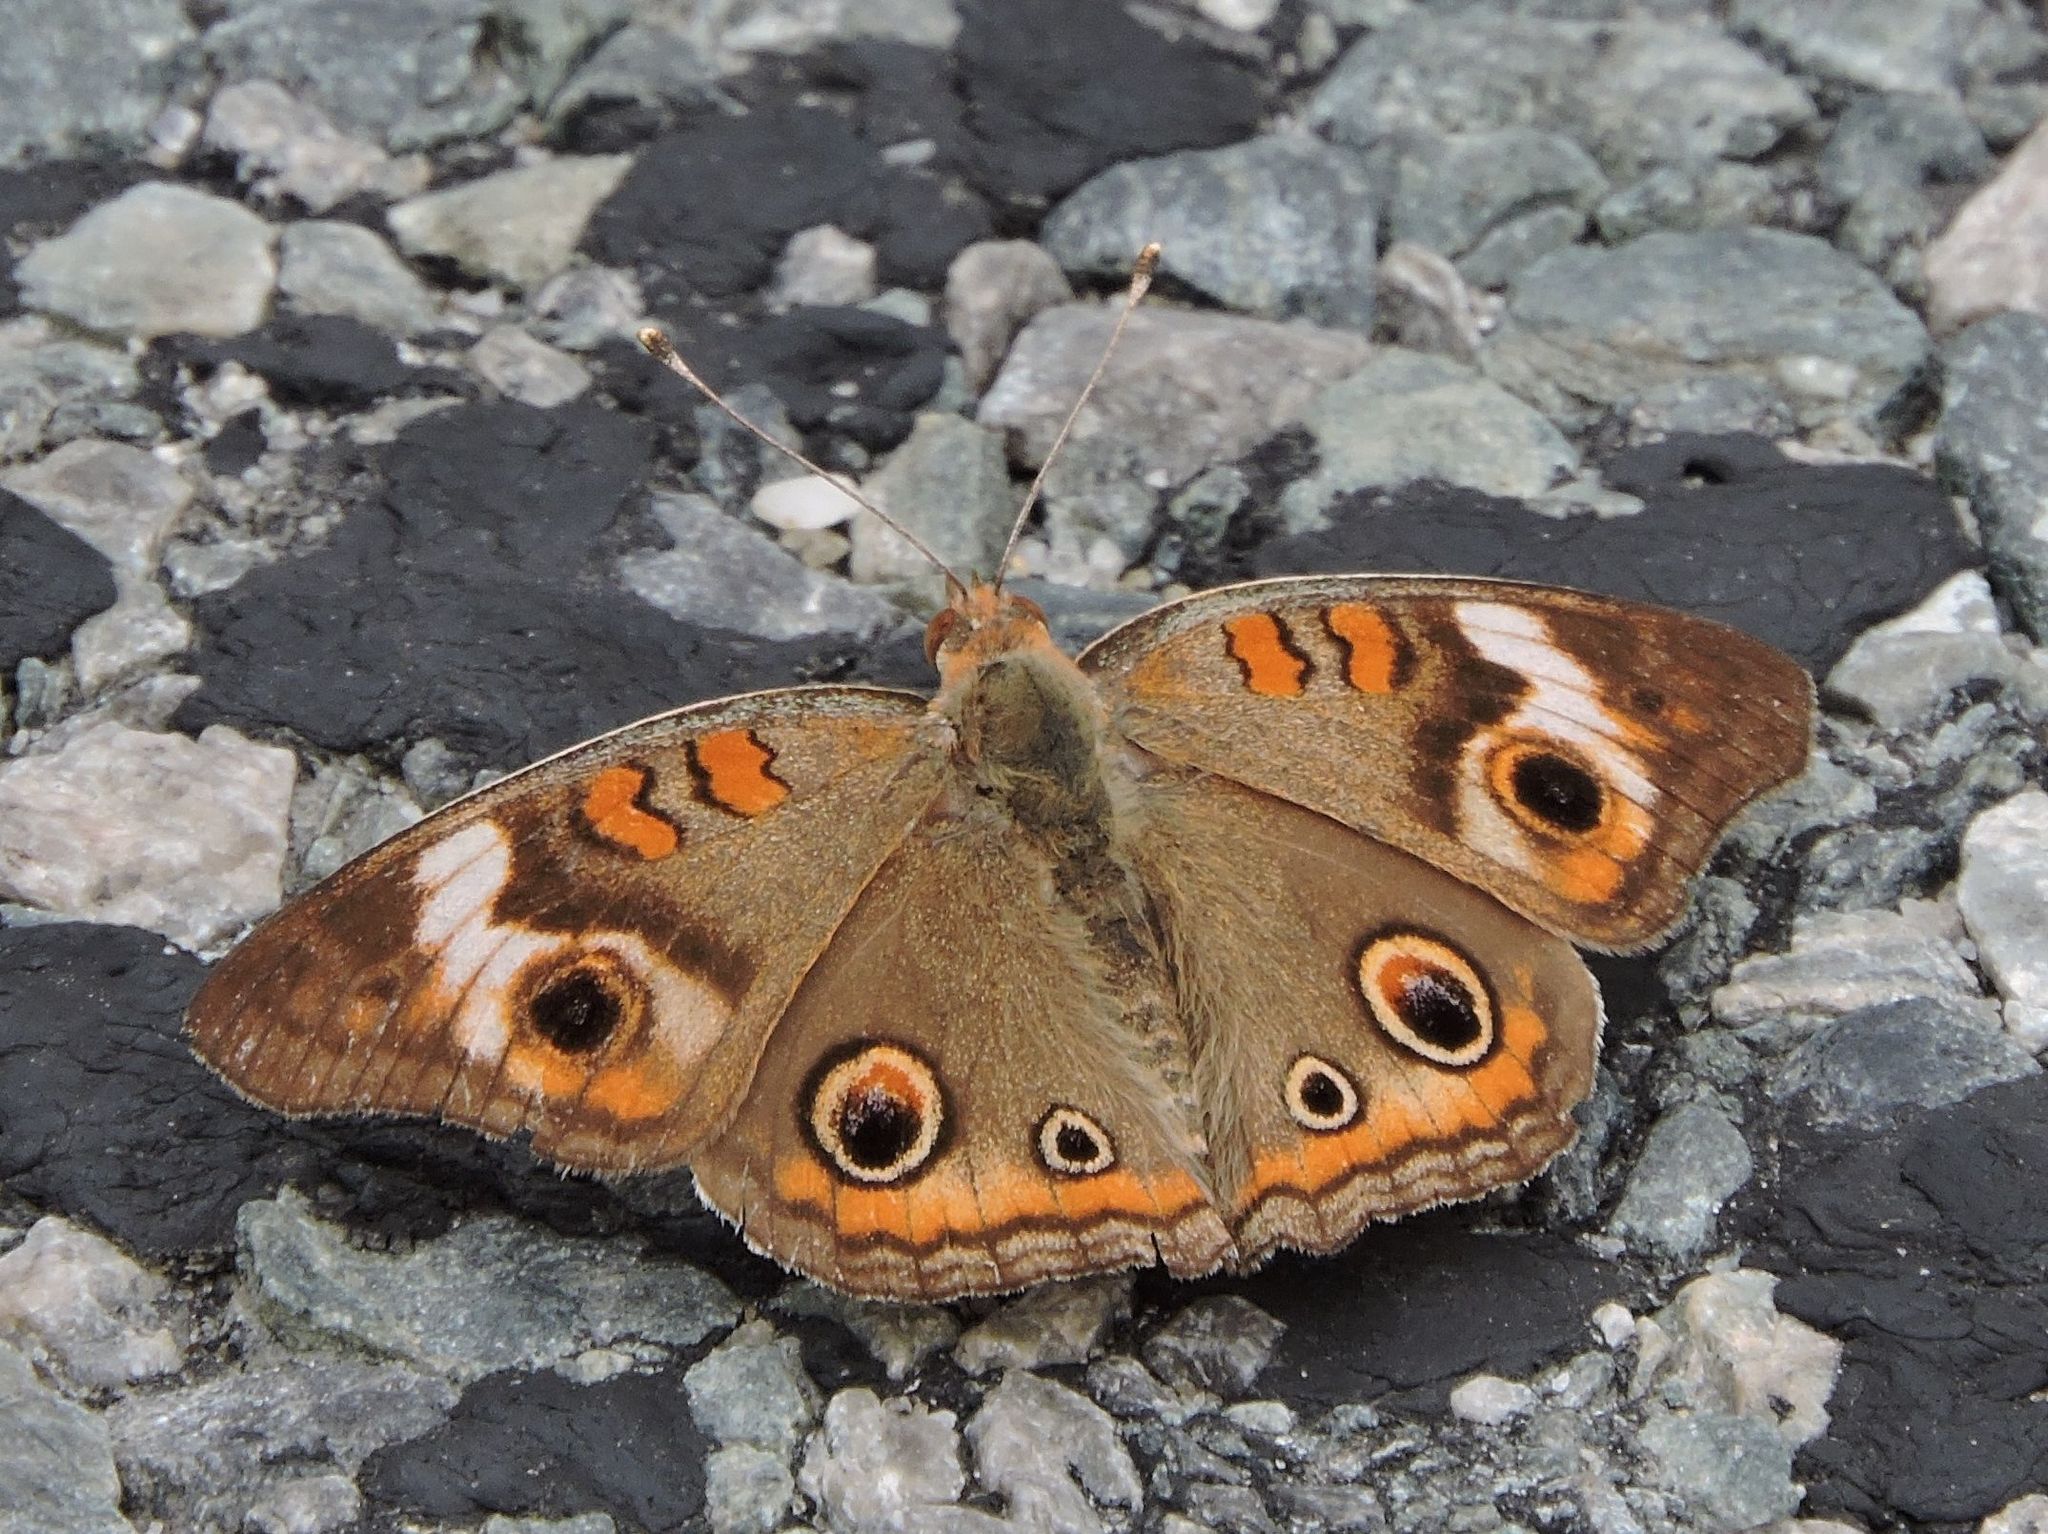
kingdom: Animalia
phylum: Arthropoda
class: Insecta
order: Lepidoptera
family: Nymphalidae
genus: Junonia
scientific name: Junonia coenia
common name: Common buckeye
